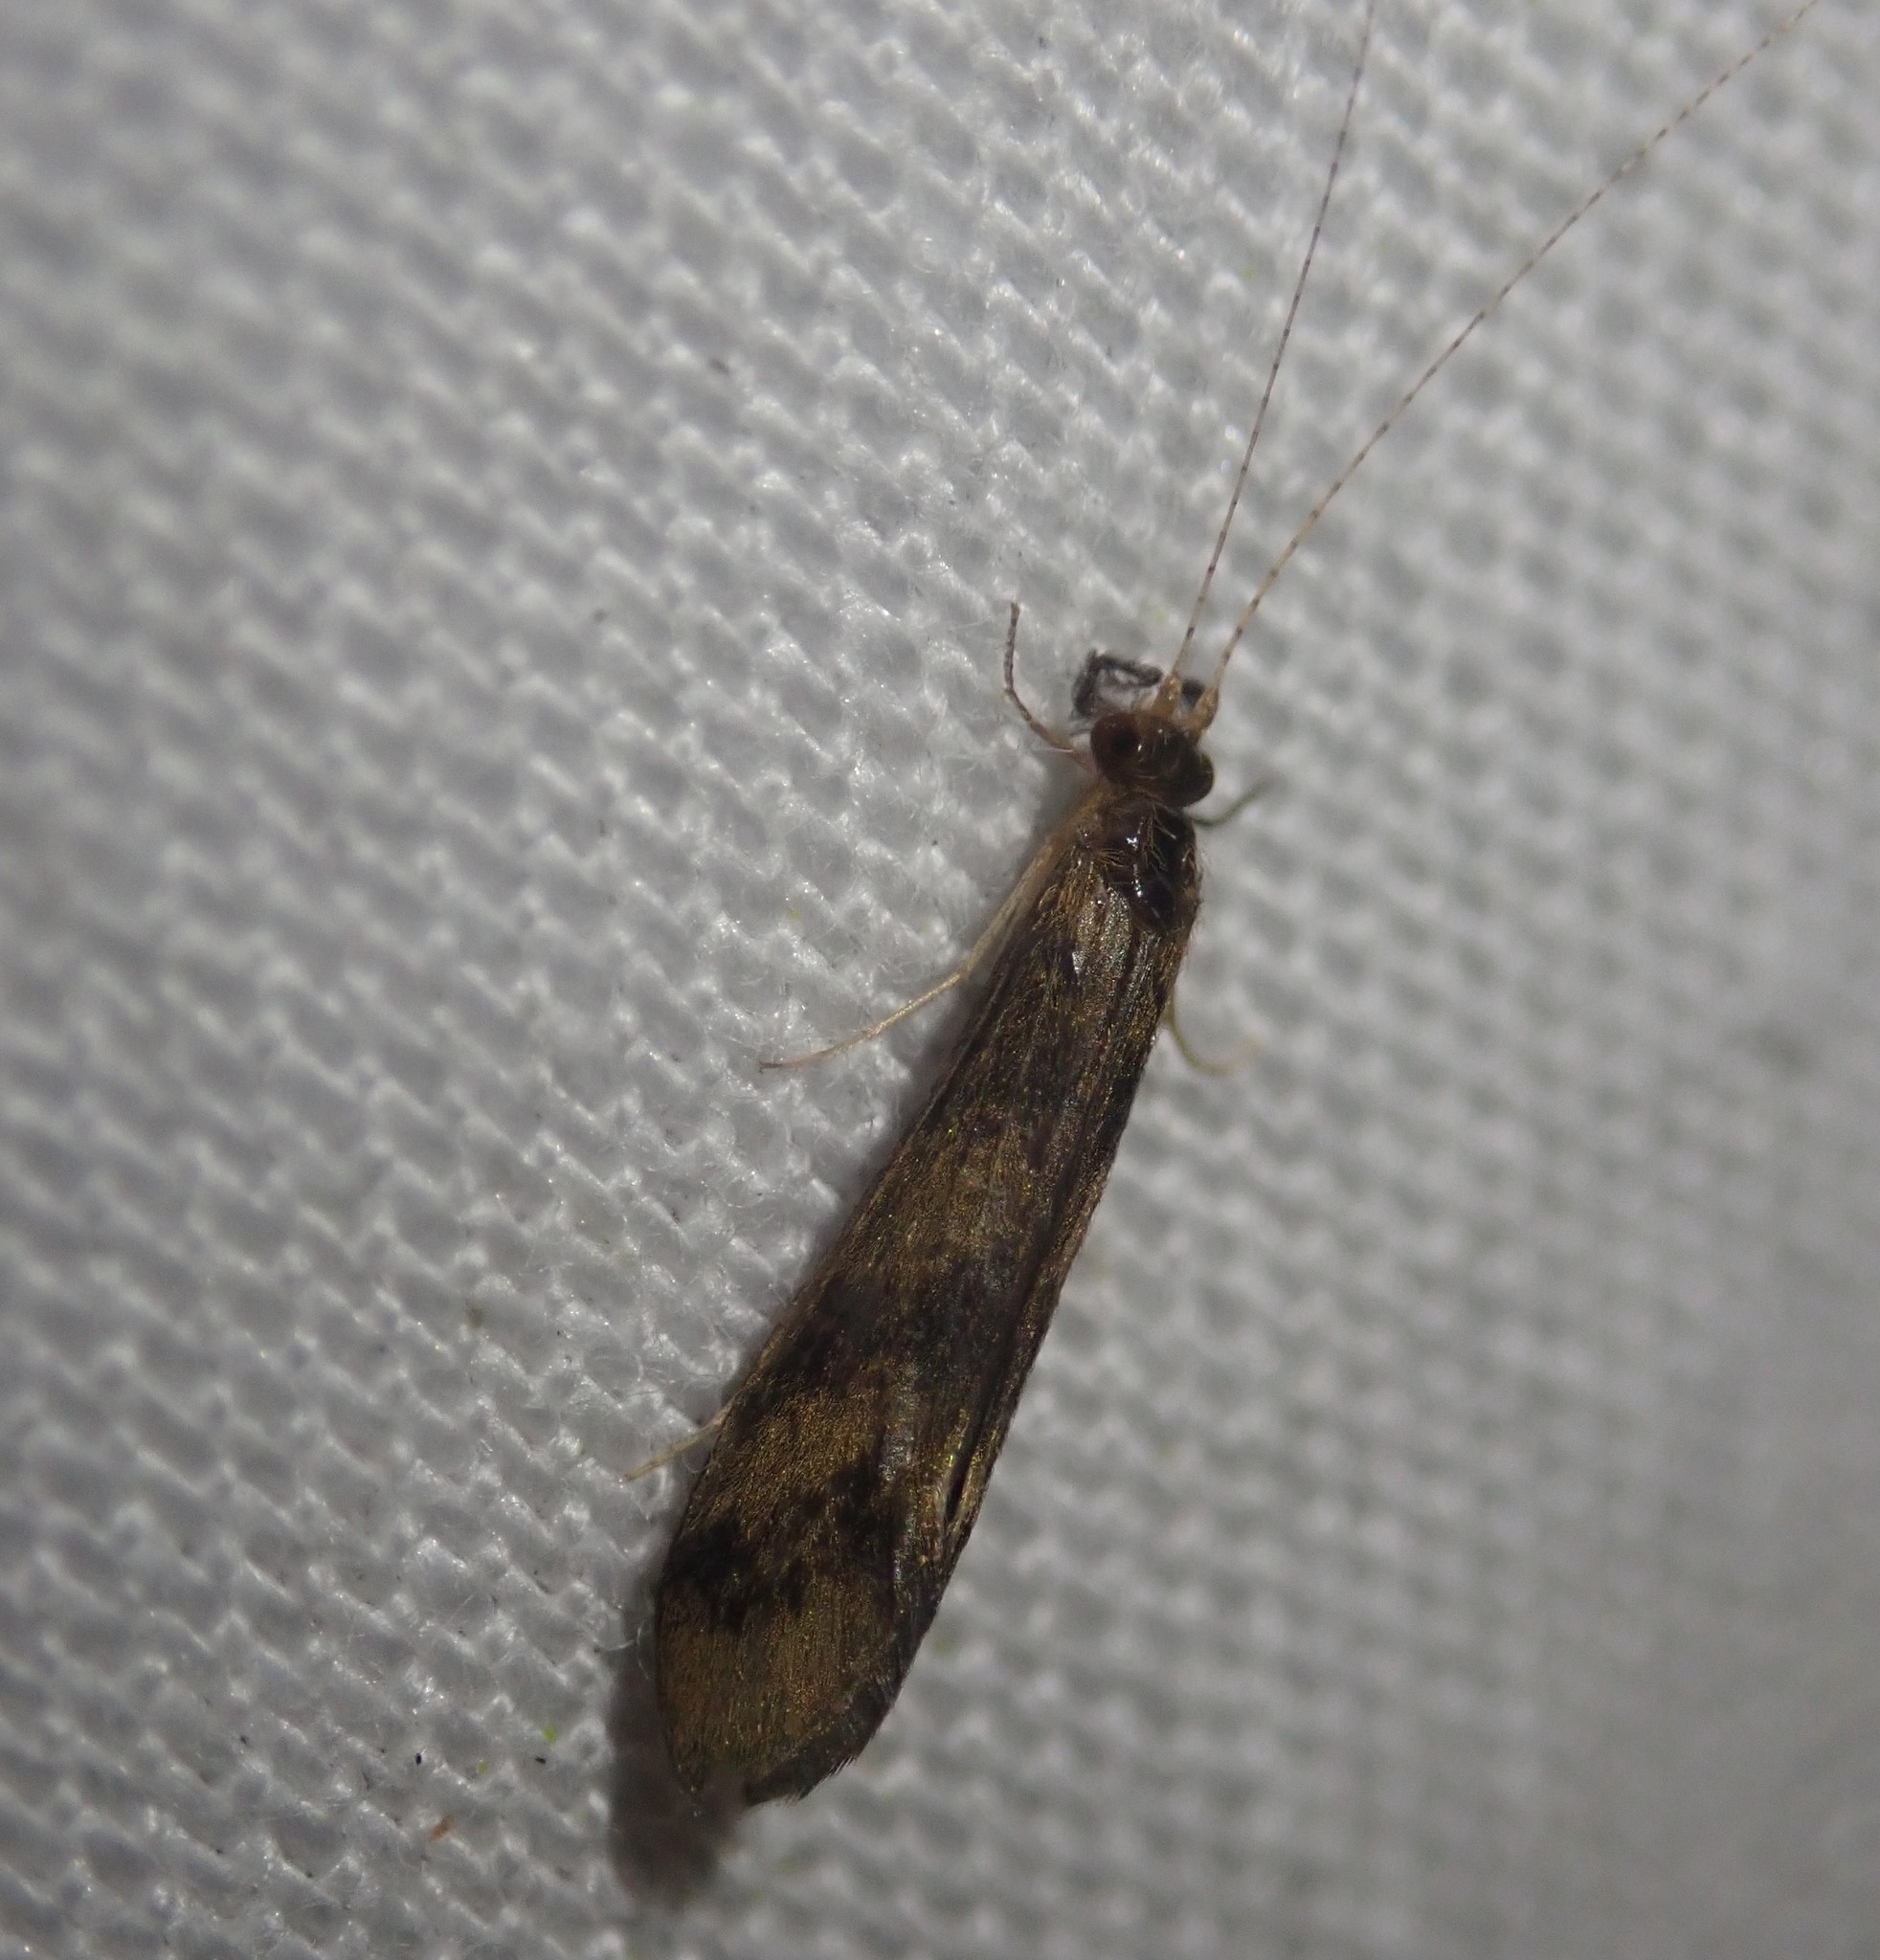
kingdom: Animalia
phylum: Arthropoda
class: Insecta
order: Trichoptera
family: Leptoceridae
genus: Mystacides
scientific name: Mystacides longicornis
